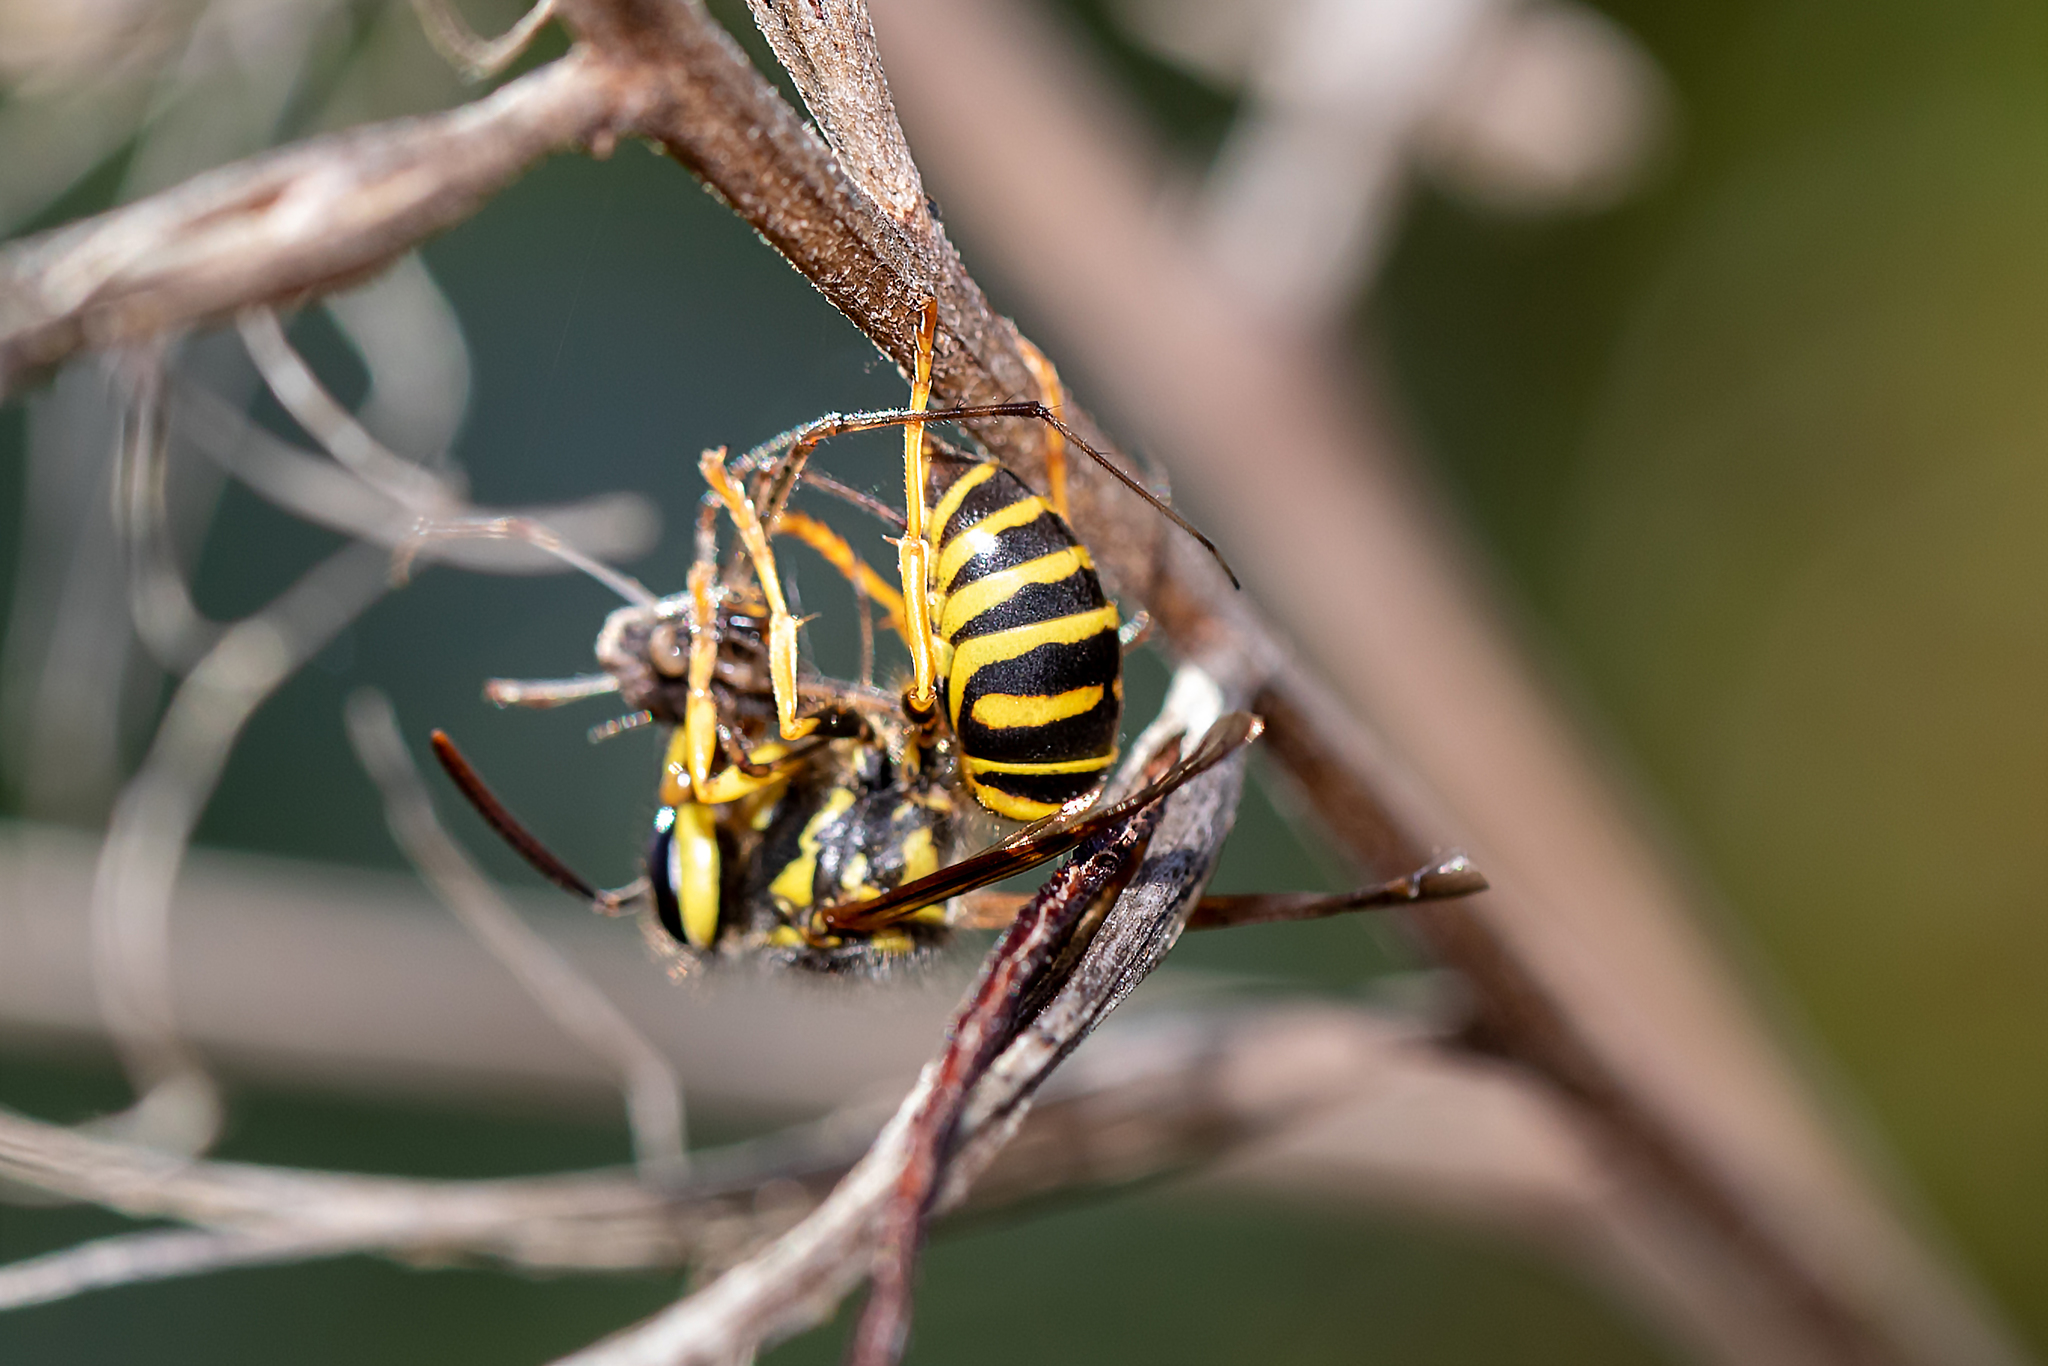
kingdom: Animalia
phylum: Arthropoda
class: Insecta
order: Hymenoptera
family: Vespidae
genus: Vespula
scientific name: Vespula squamosa
